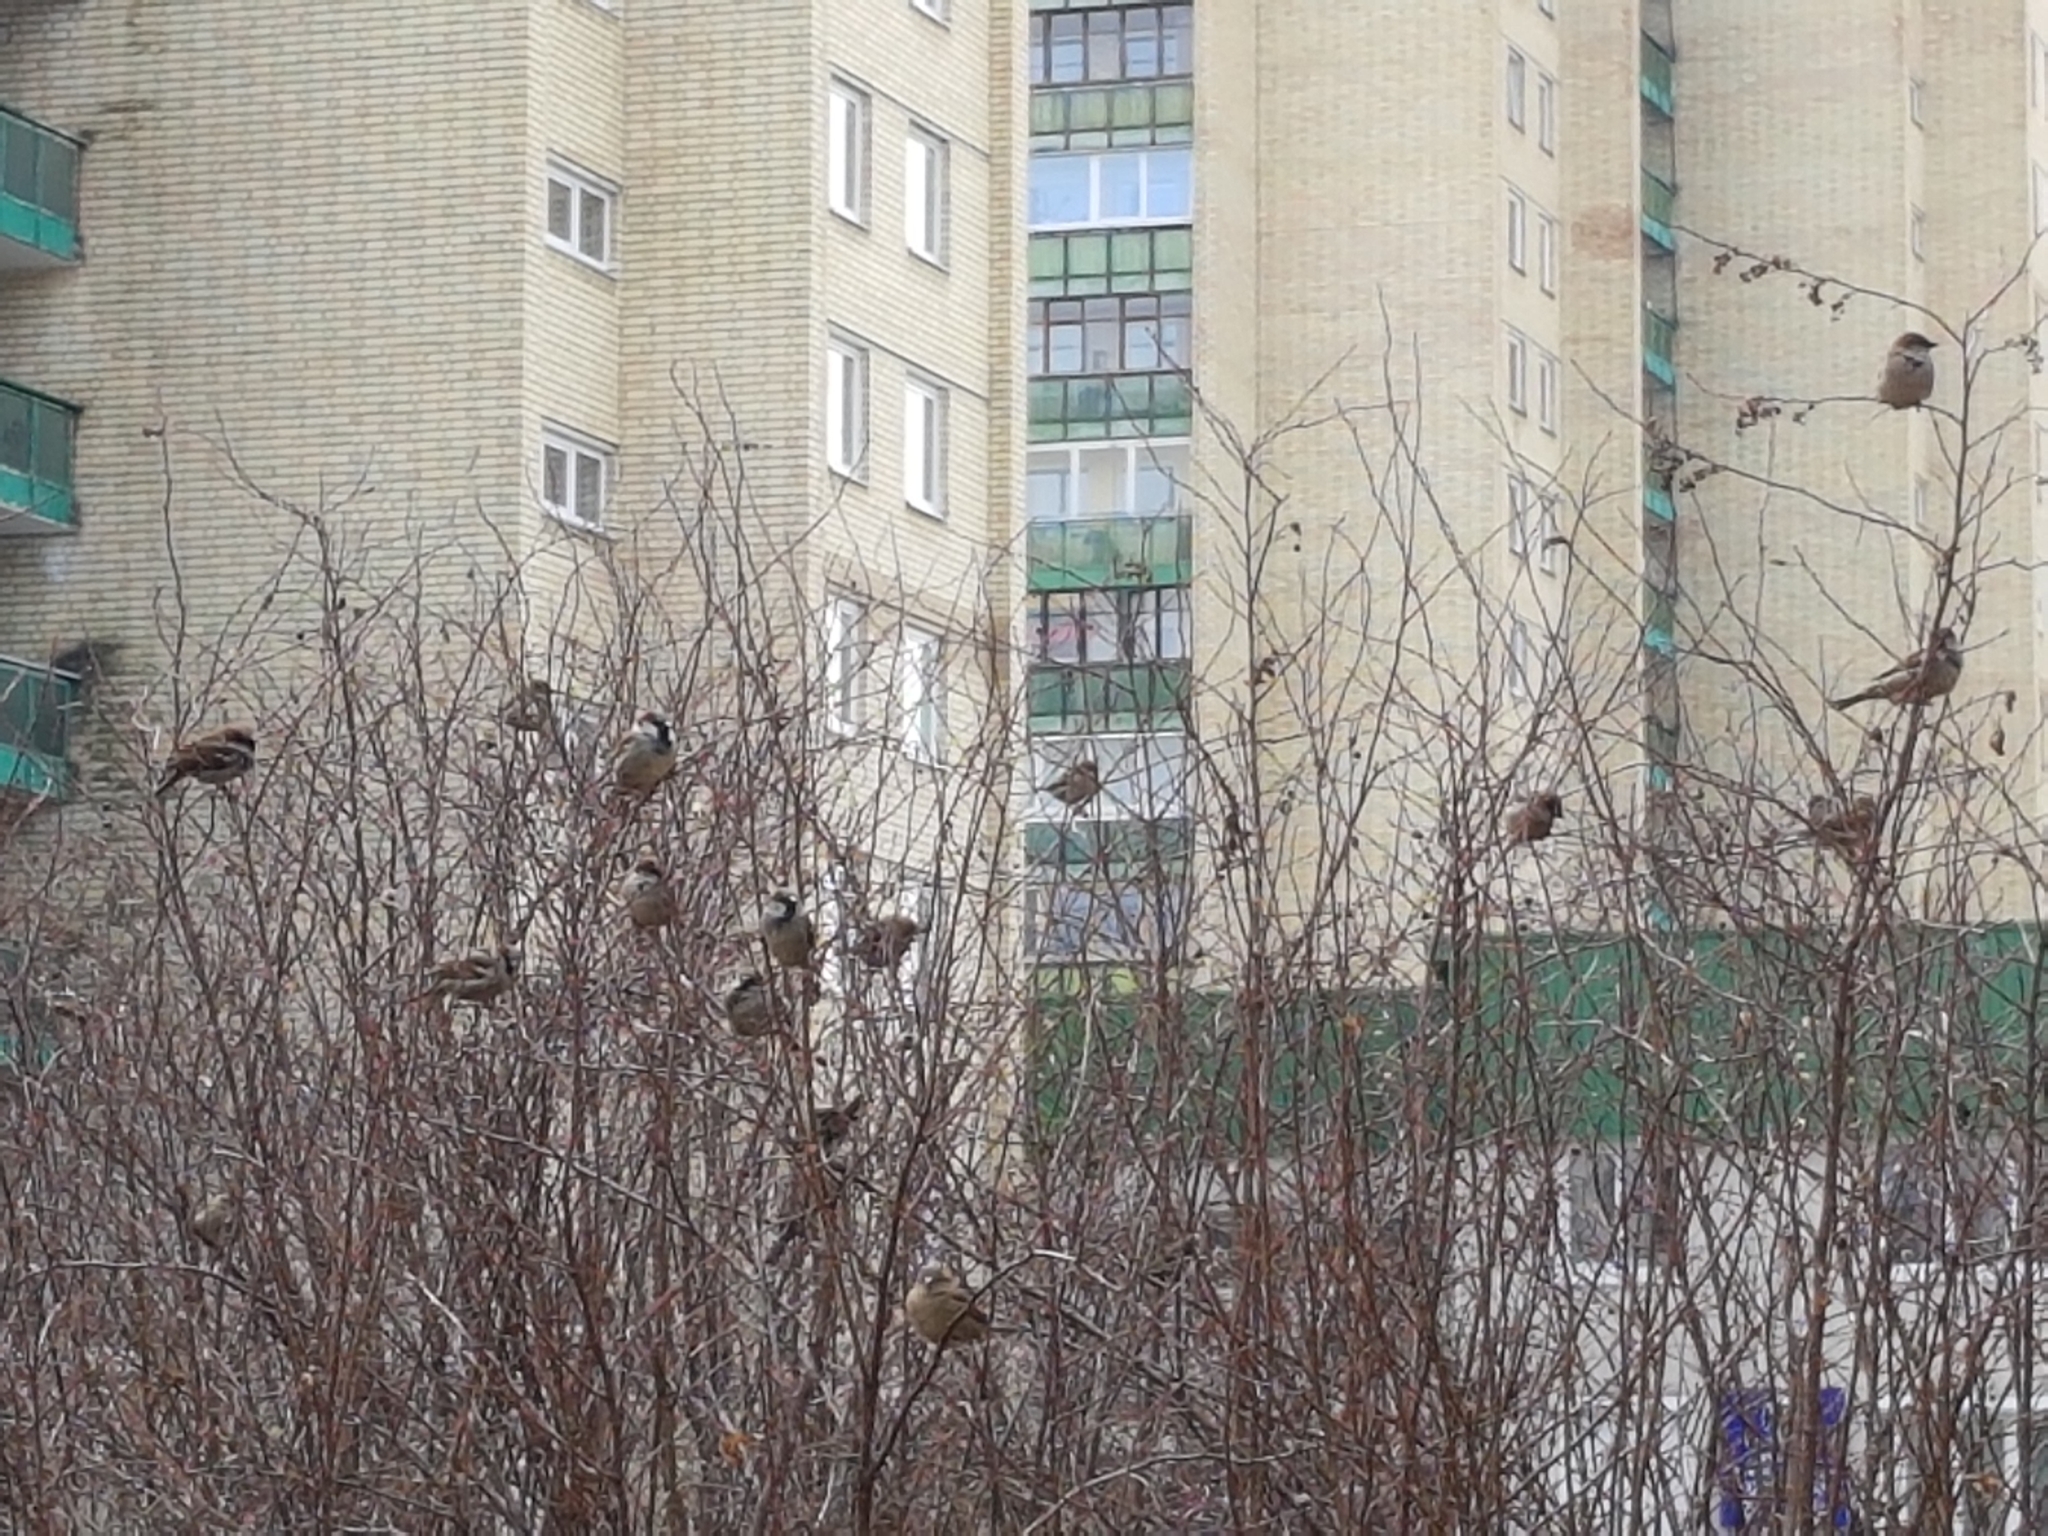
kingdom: Animalia
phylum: Chordata
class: Aves
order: Passeriformes
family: Passeridae
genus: Passer
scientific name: Passer domesticus
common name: House sparrow
